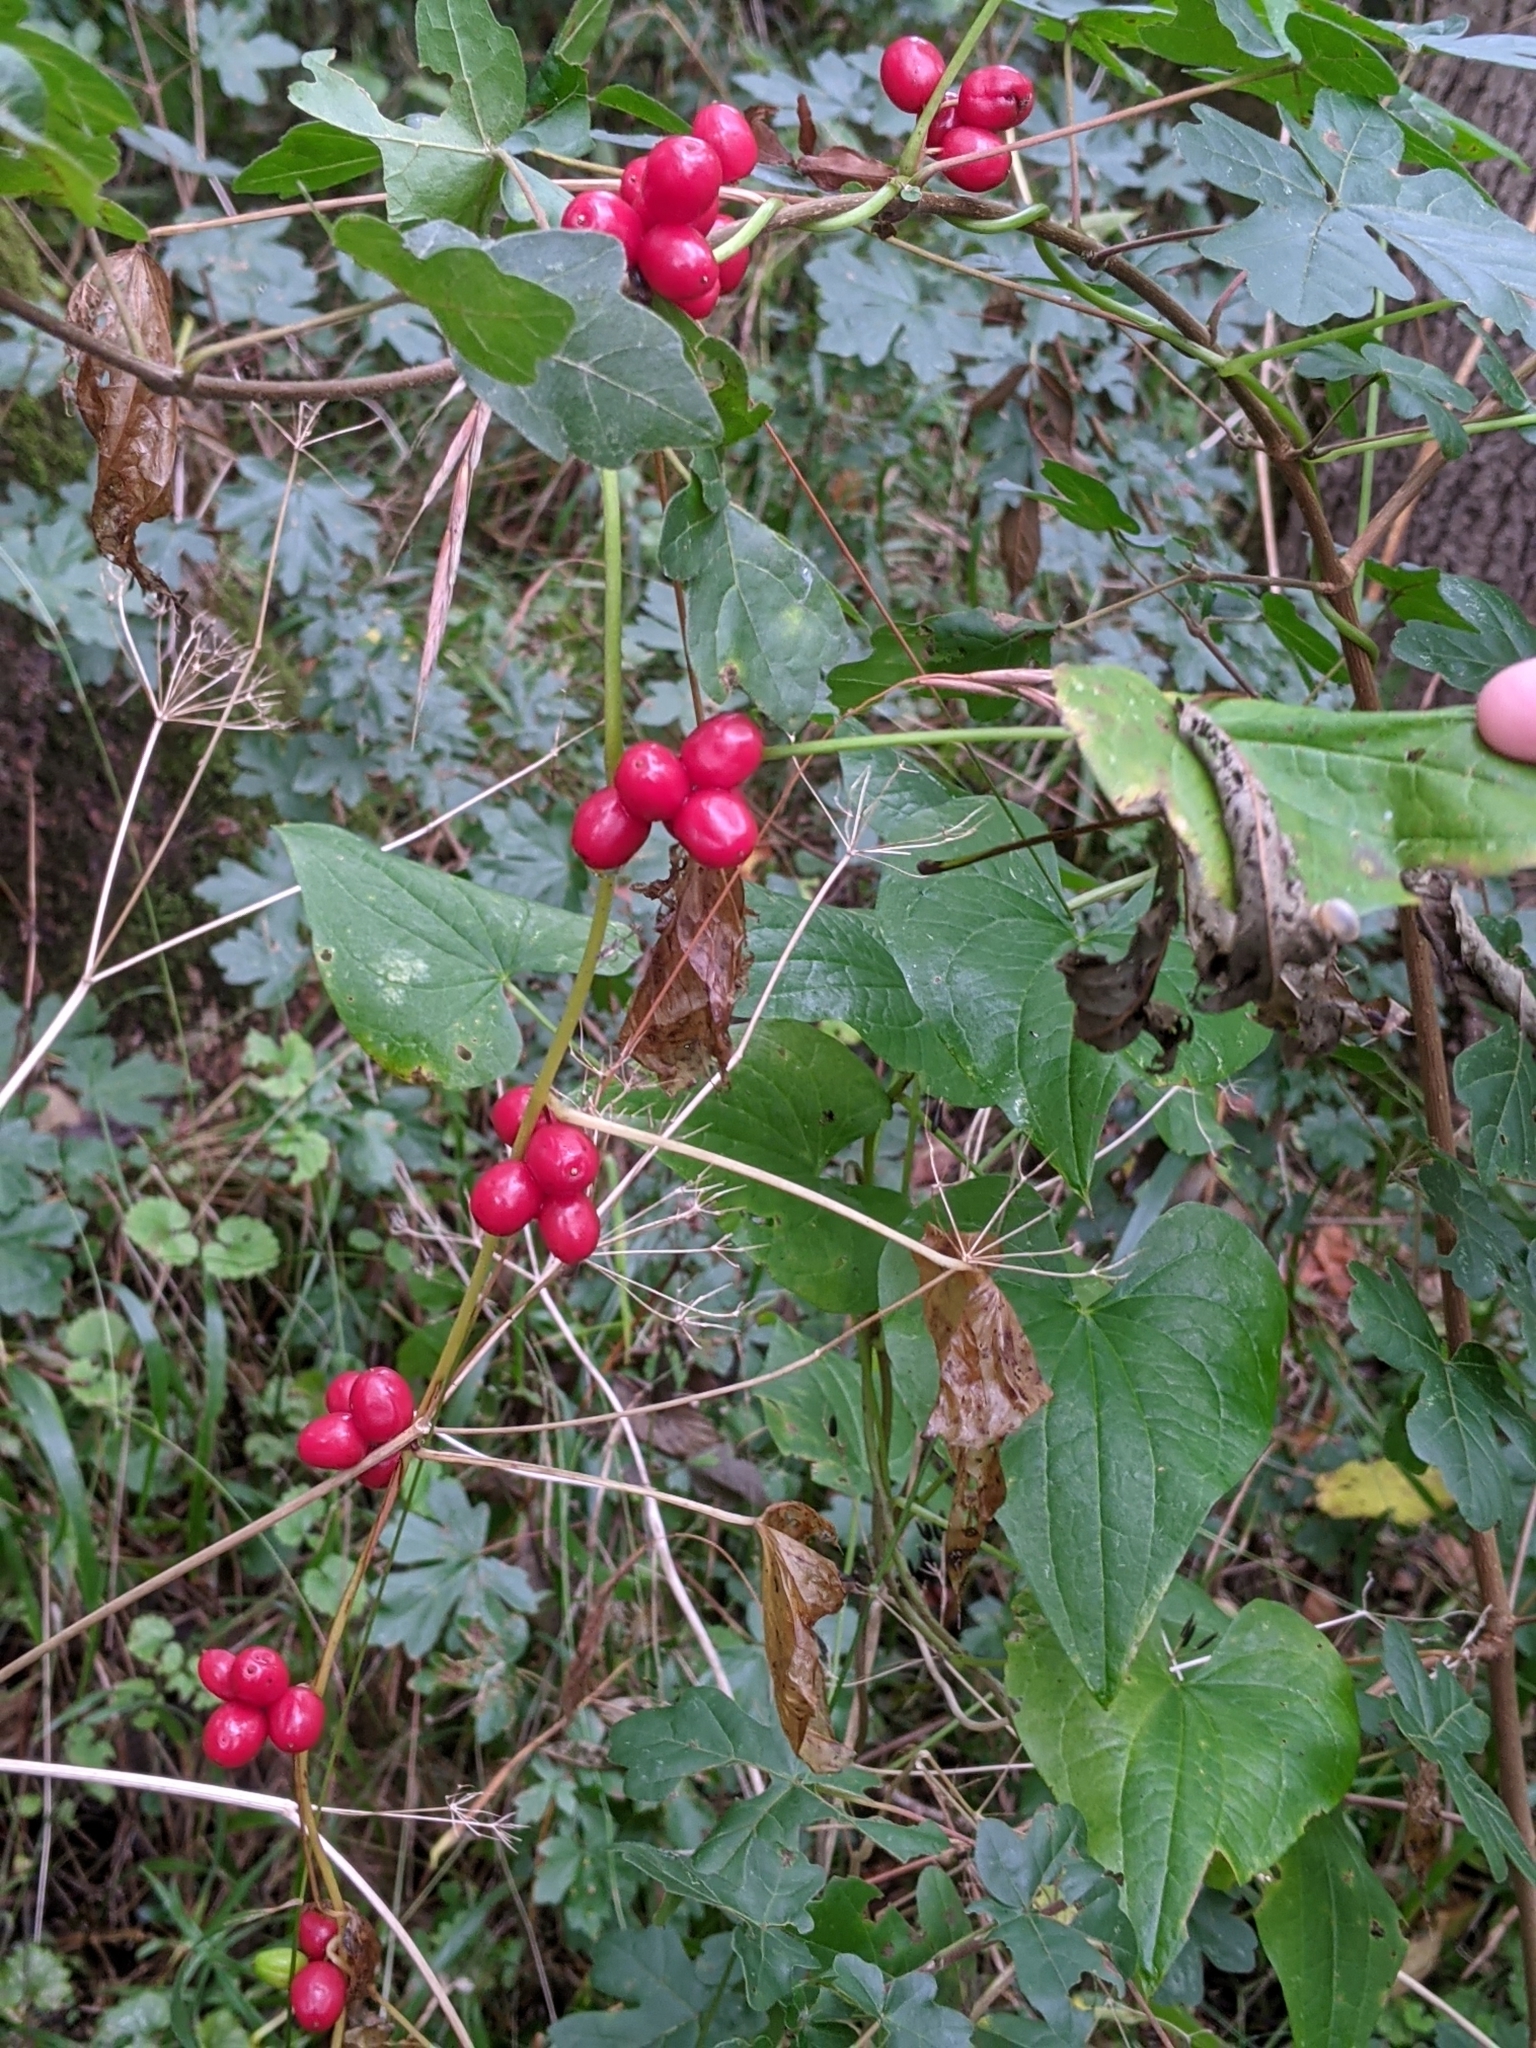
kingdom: Plantae
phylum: Tracheophyta
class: Liliopsida
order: Dioscoreales
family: Dioscoreaceae
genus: Dioscorea
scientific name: Dioscorea communis
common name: Black-bindweed
